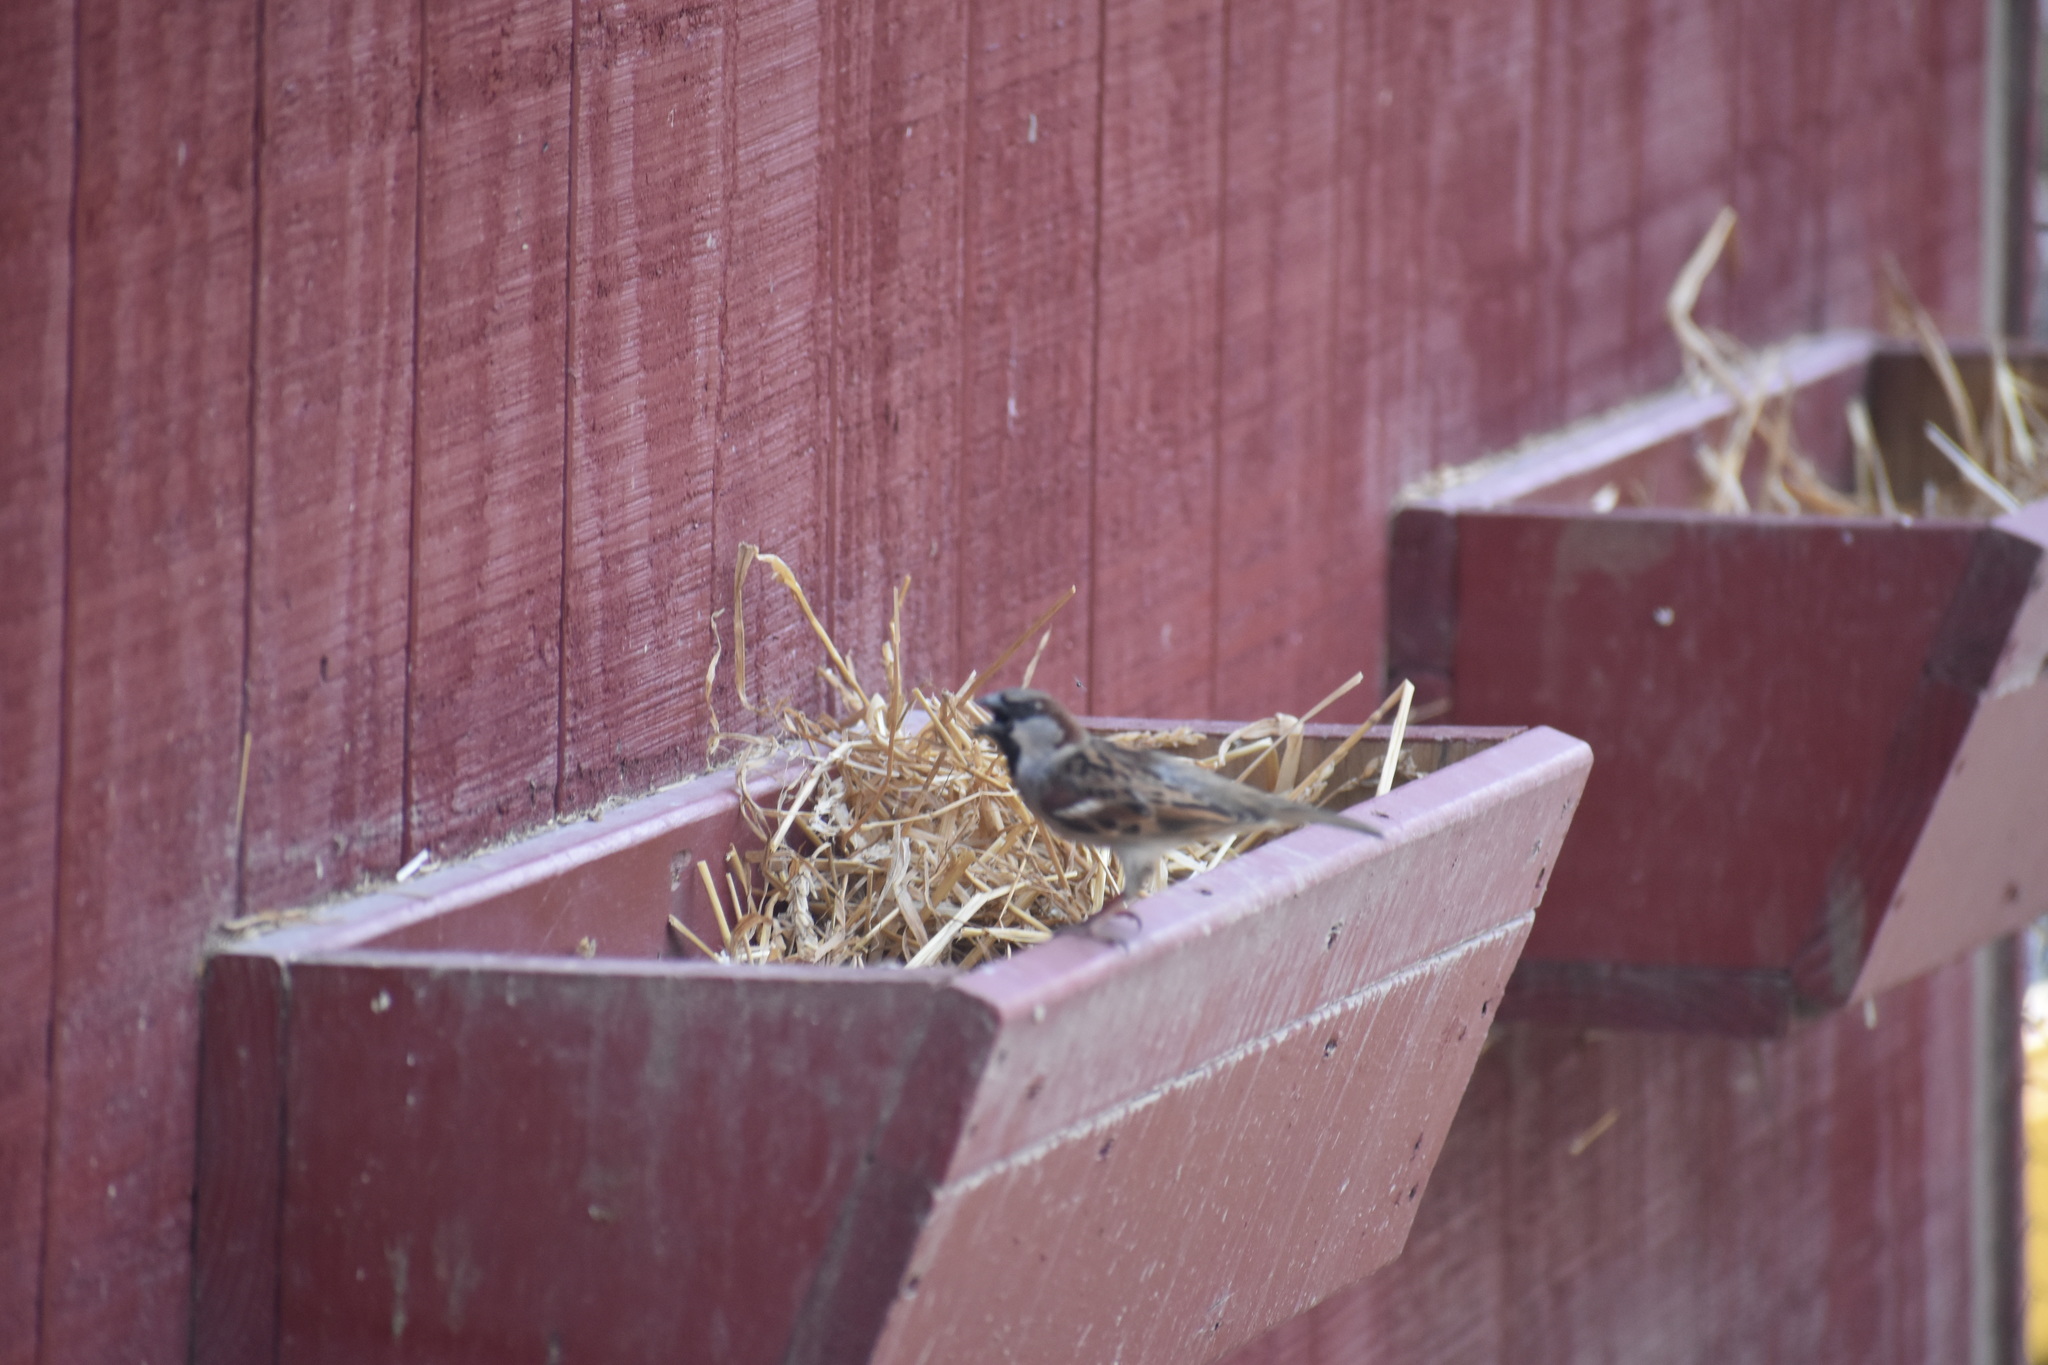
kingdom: Animalia
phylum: Chordata
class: Aves
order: Passeriformes
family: Passeridae
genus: Passer
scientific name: Passer domesticus
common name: House sparrow
